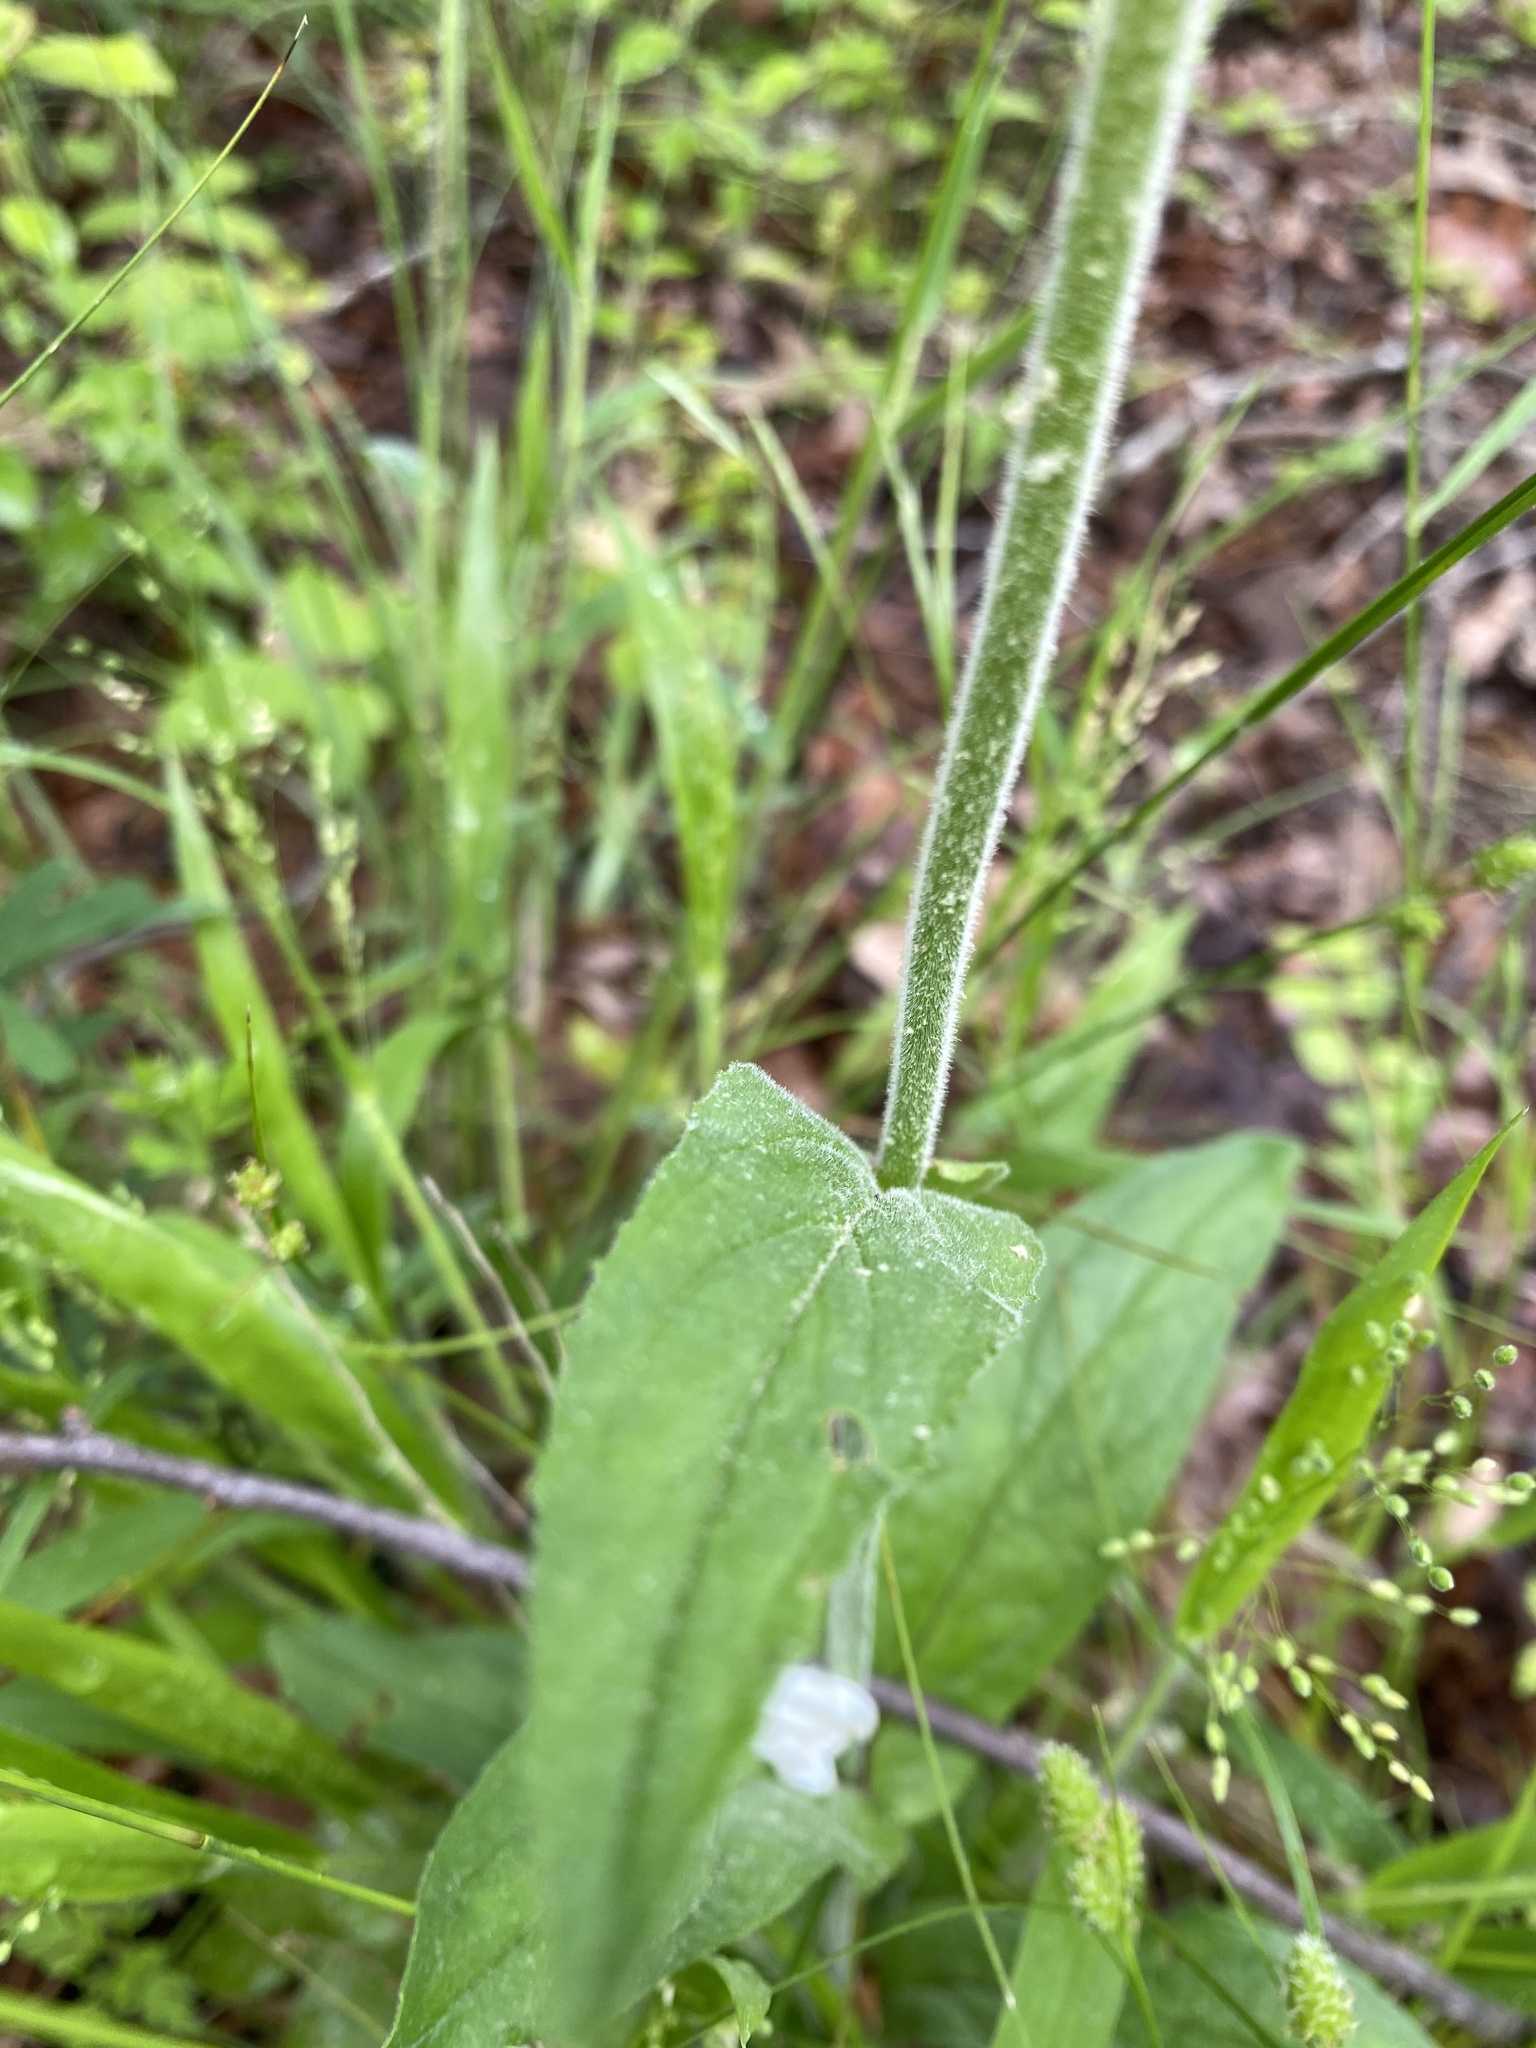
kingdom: Plantae
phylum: Tracheophyta
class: Magnoliopsida
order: Lamiales
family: Plantaginaceae
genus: Penstemon
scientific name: Penstemon tenuiflorus
